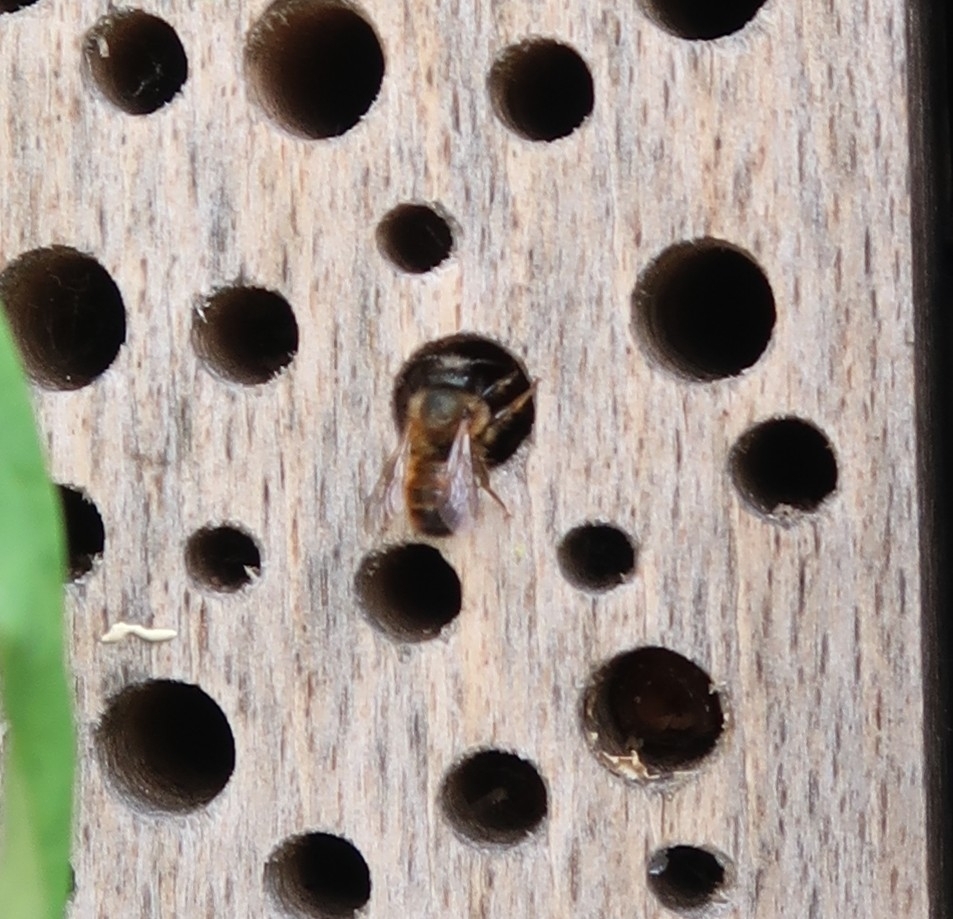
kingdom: Animalia
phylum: Arthropoda
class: Insecta
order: Hymenoptera
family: Megachilidae
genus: Osmia
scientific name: Osmia bicornis
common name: Red mason bee
